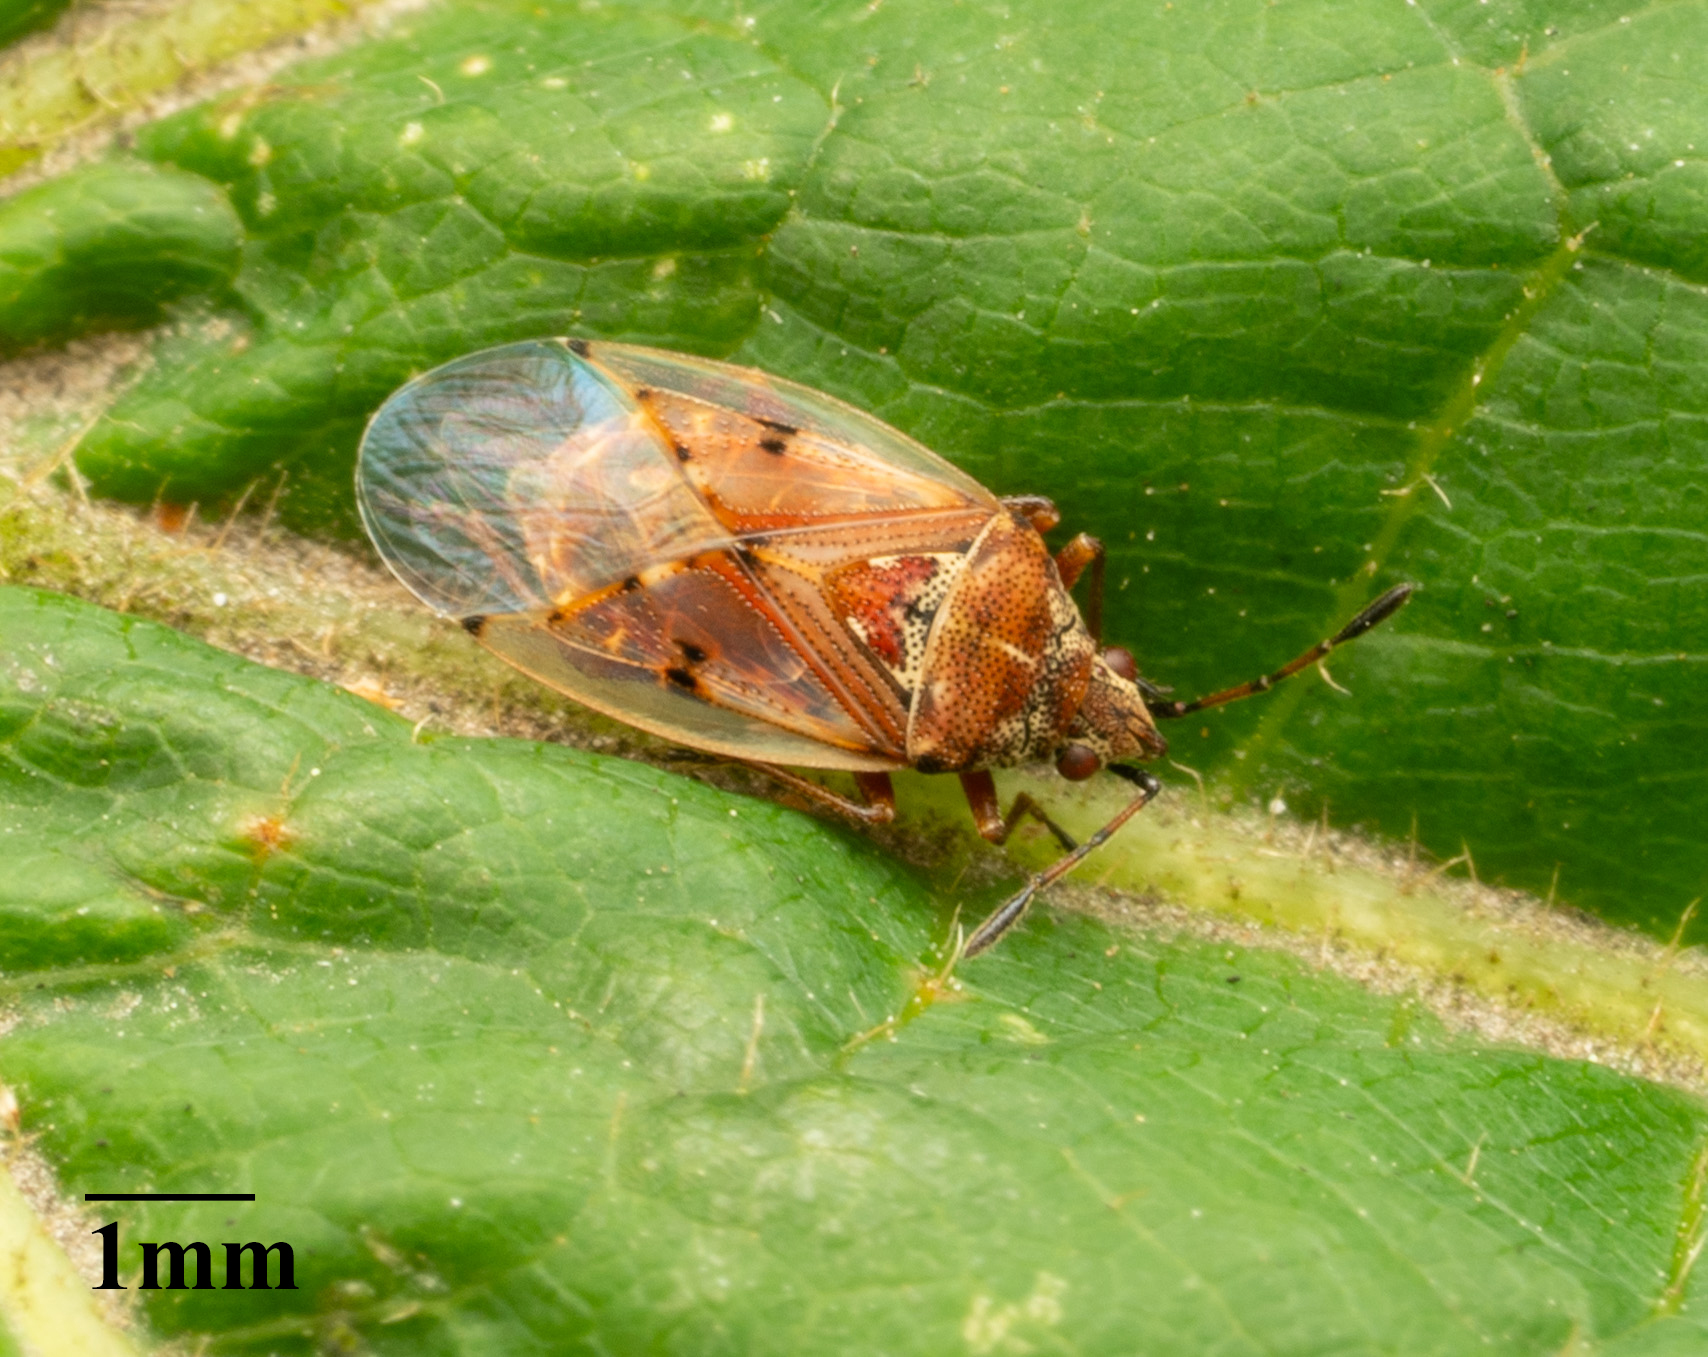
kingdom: Animalia
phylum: Arthropoda
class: Insecta
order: Hemiptera
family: Lygaeidae
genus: Kleidocerys
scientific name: Kleidocerys resedae
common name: Birch catkin bug
